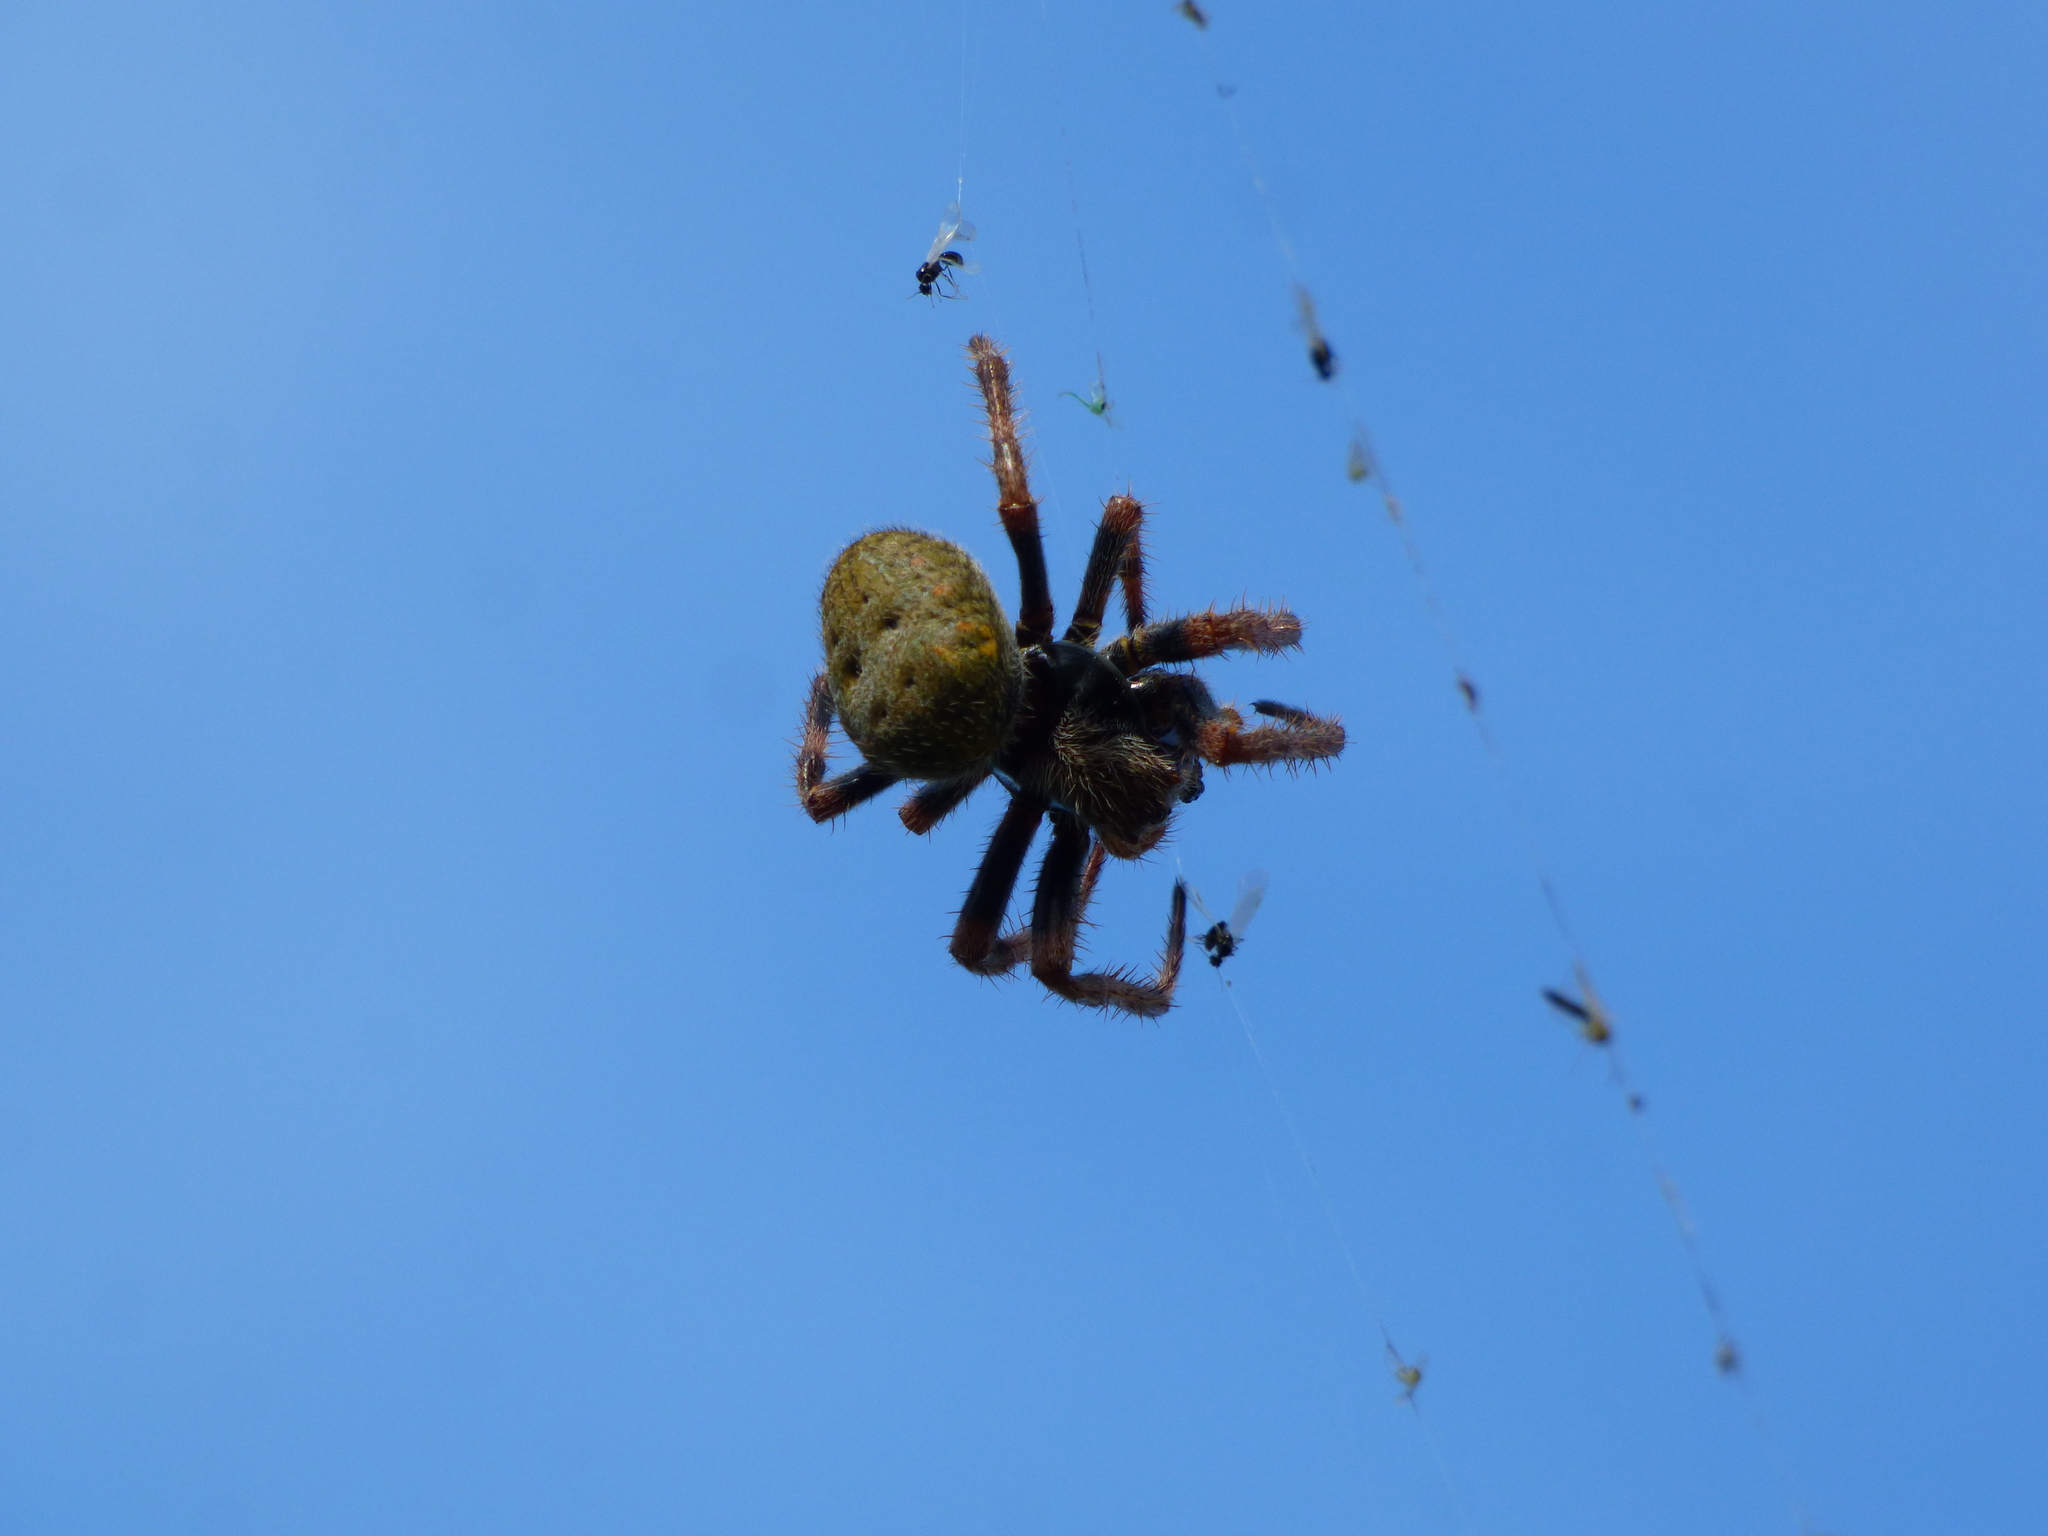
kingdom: Animalia
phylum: Arthropoda
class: Arachnida
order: Araneae
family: Araneidae
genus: Parawixia
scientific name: Parawixia bistriata
